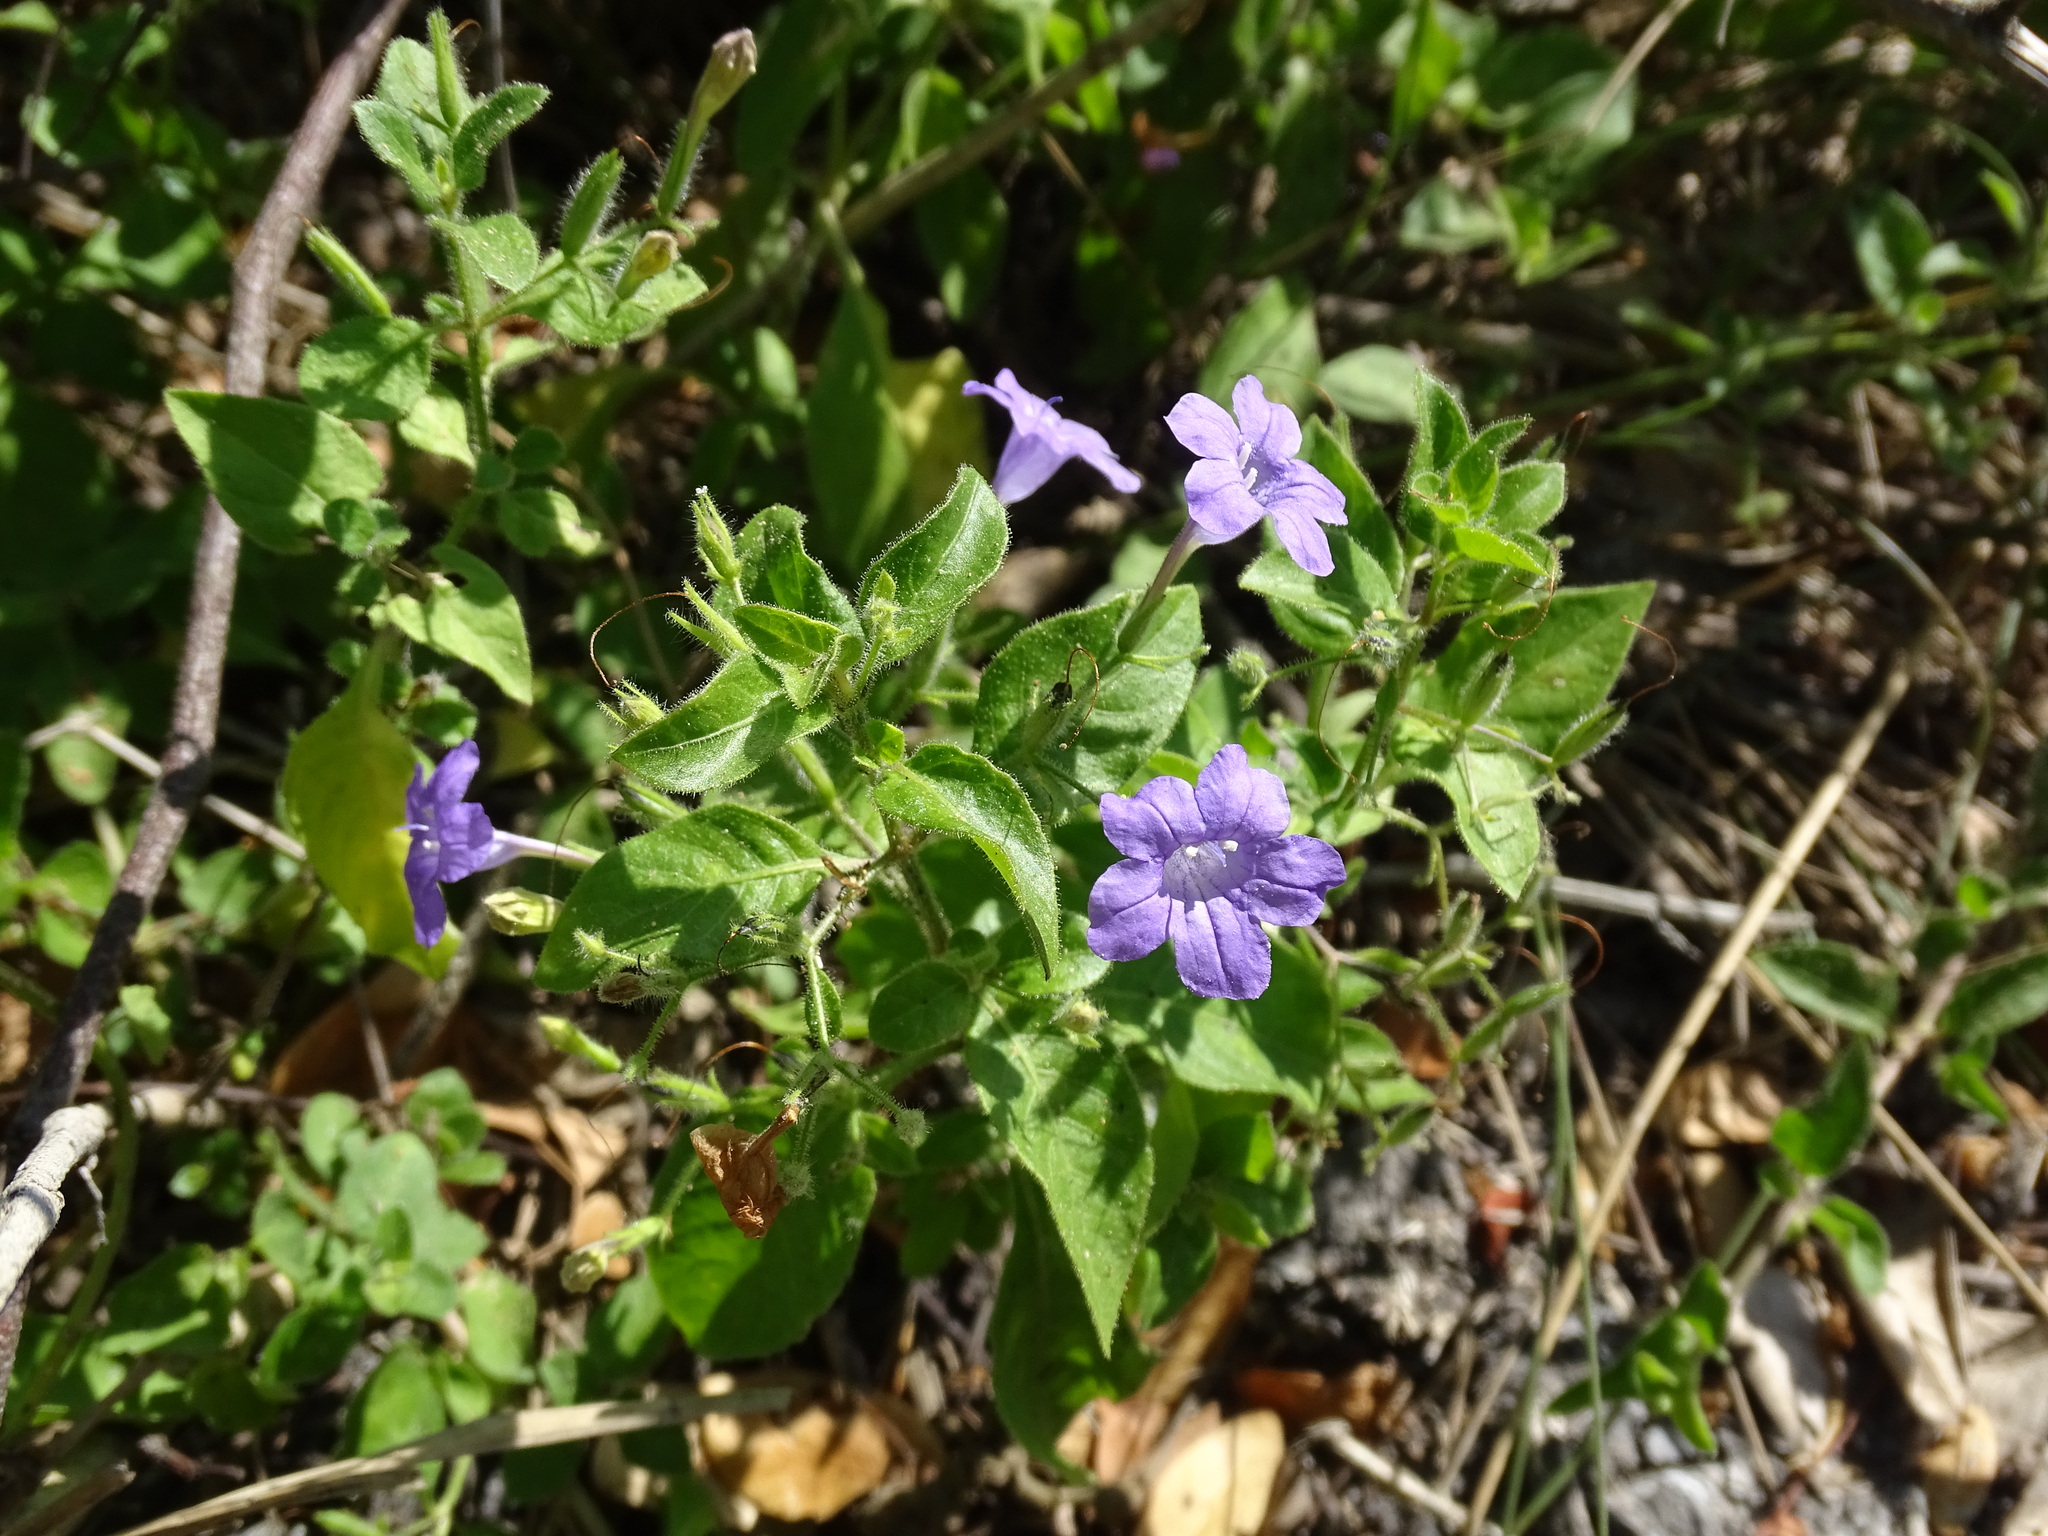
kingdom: Plantae
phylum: Tracheophyta
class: Magnoliopsida
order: Lamiales
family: Acanthaceae
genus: Ruellia
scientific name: Ruellia paniculata
